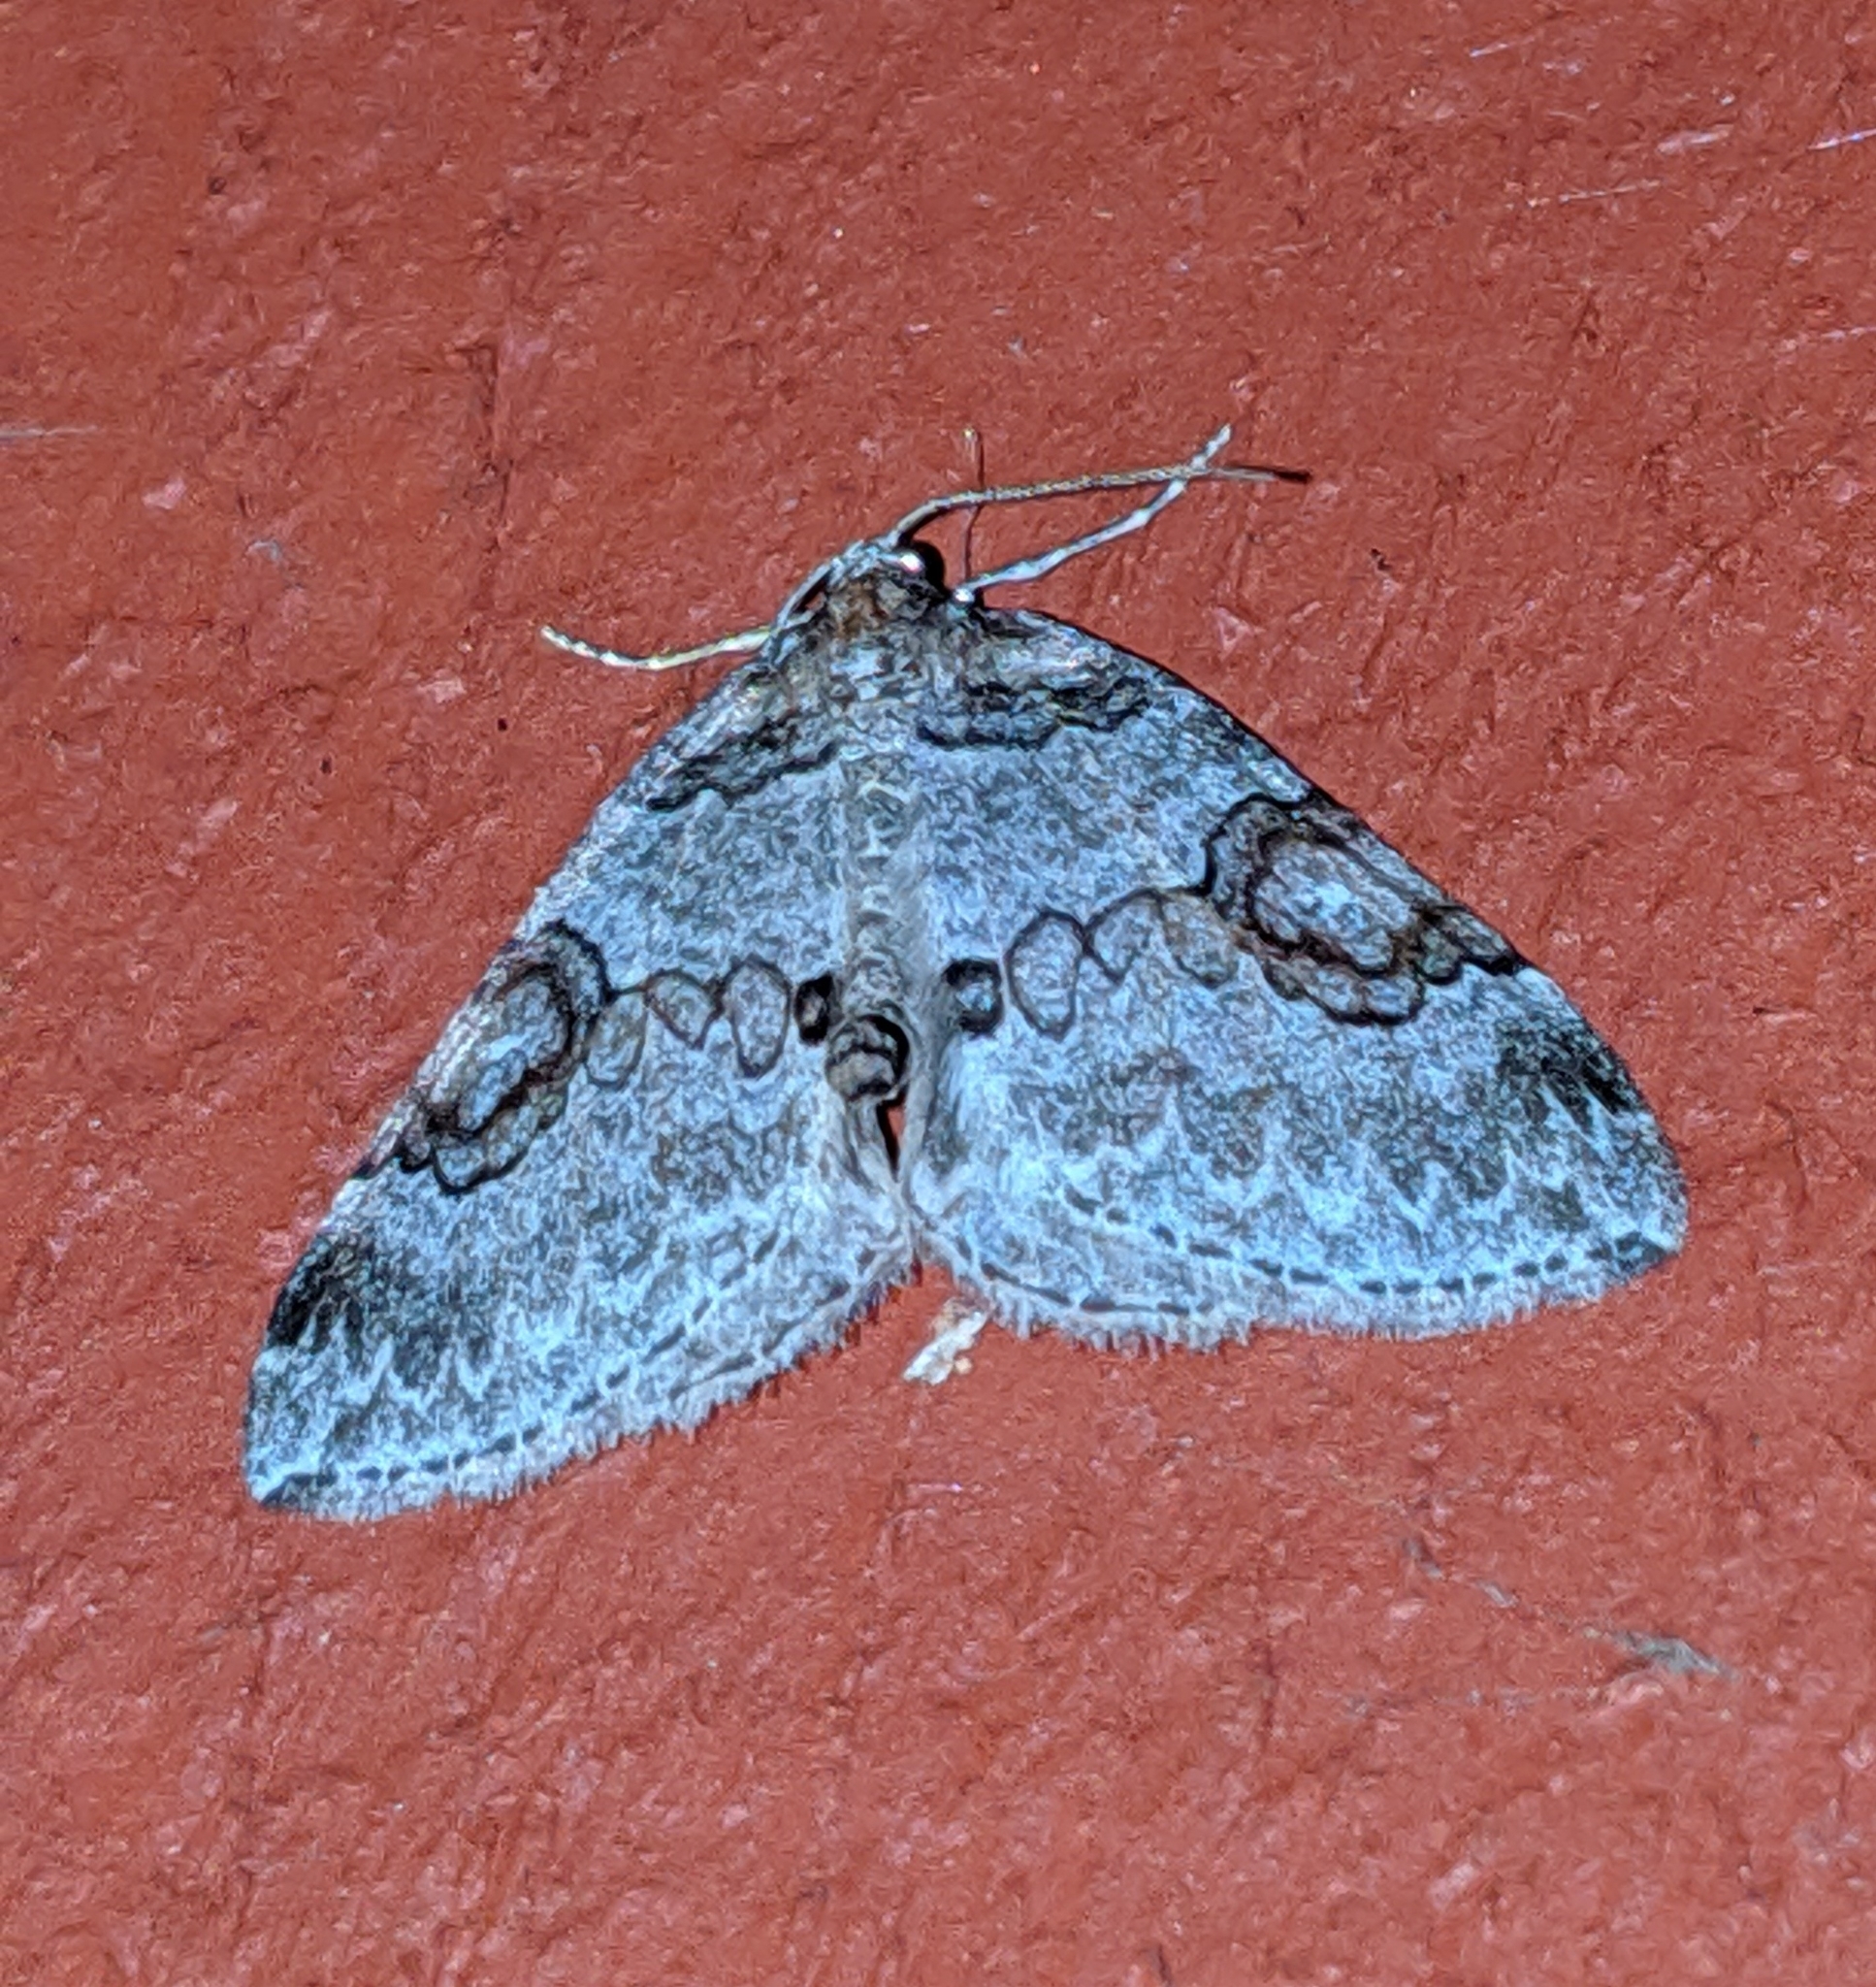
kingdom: Animalia
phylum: Arthropoda
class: Insecta
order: Lepidoptera
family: Geometridae
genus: Plemyria
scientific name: Plemyria georgii
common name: George's carpet moth
